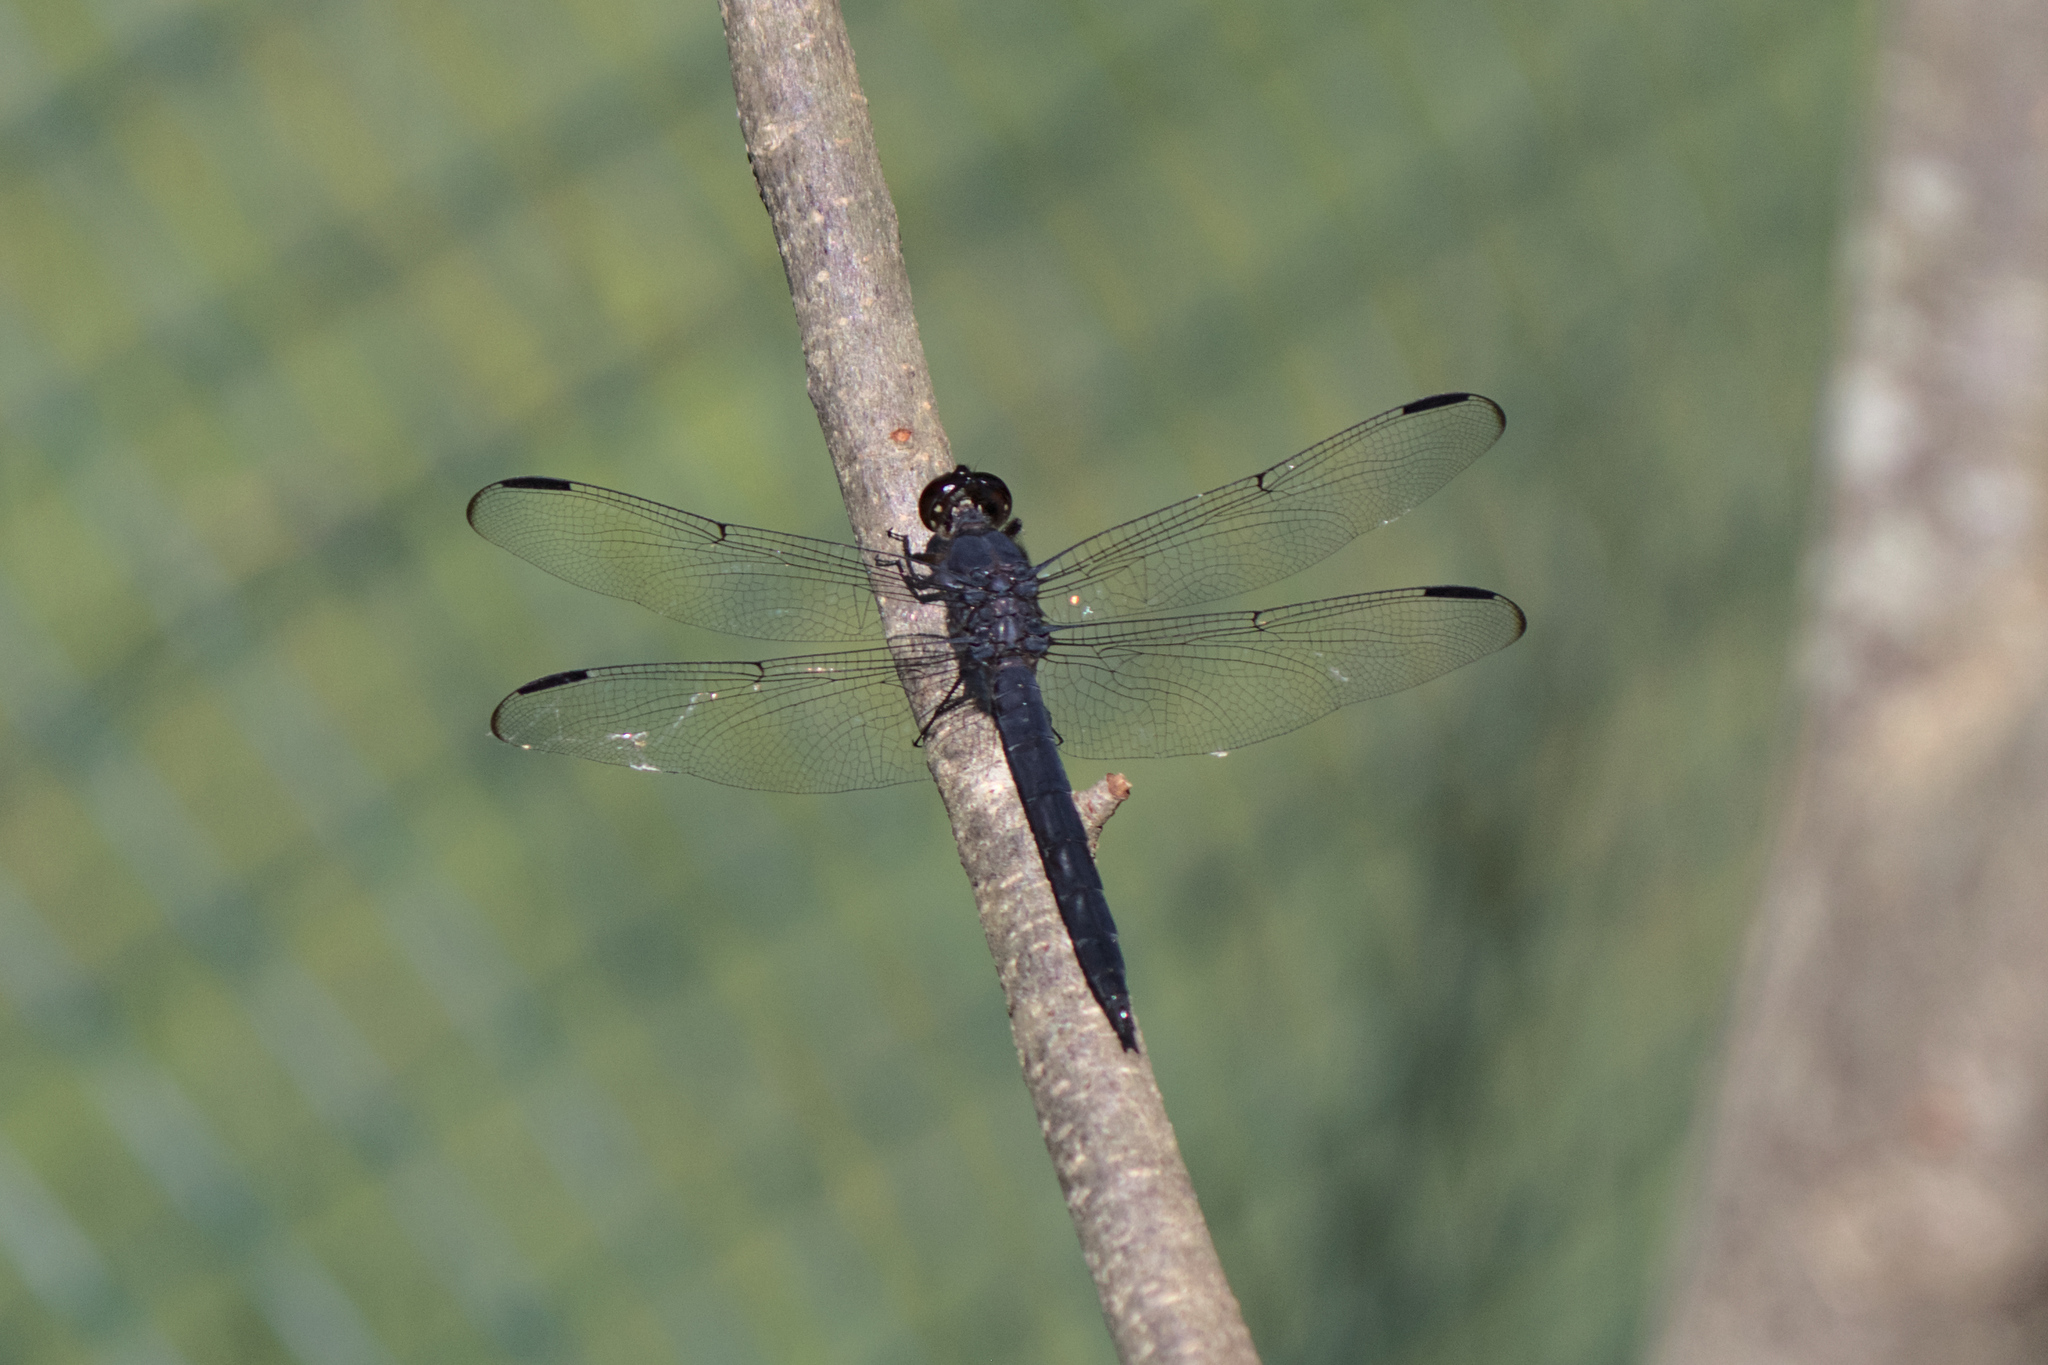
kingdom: Animalia
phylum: Arthropoda
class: Insecta
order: Odonata
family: Libellulidae
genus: Libellula
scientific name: Libellula incesta
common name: Slaty skimmer
